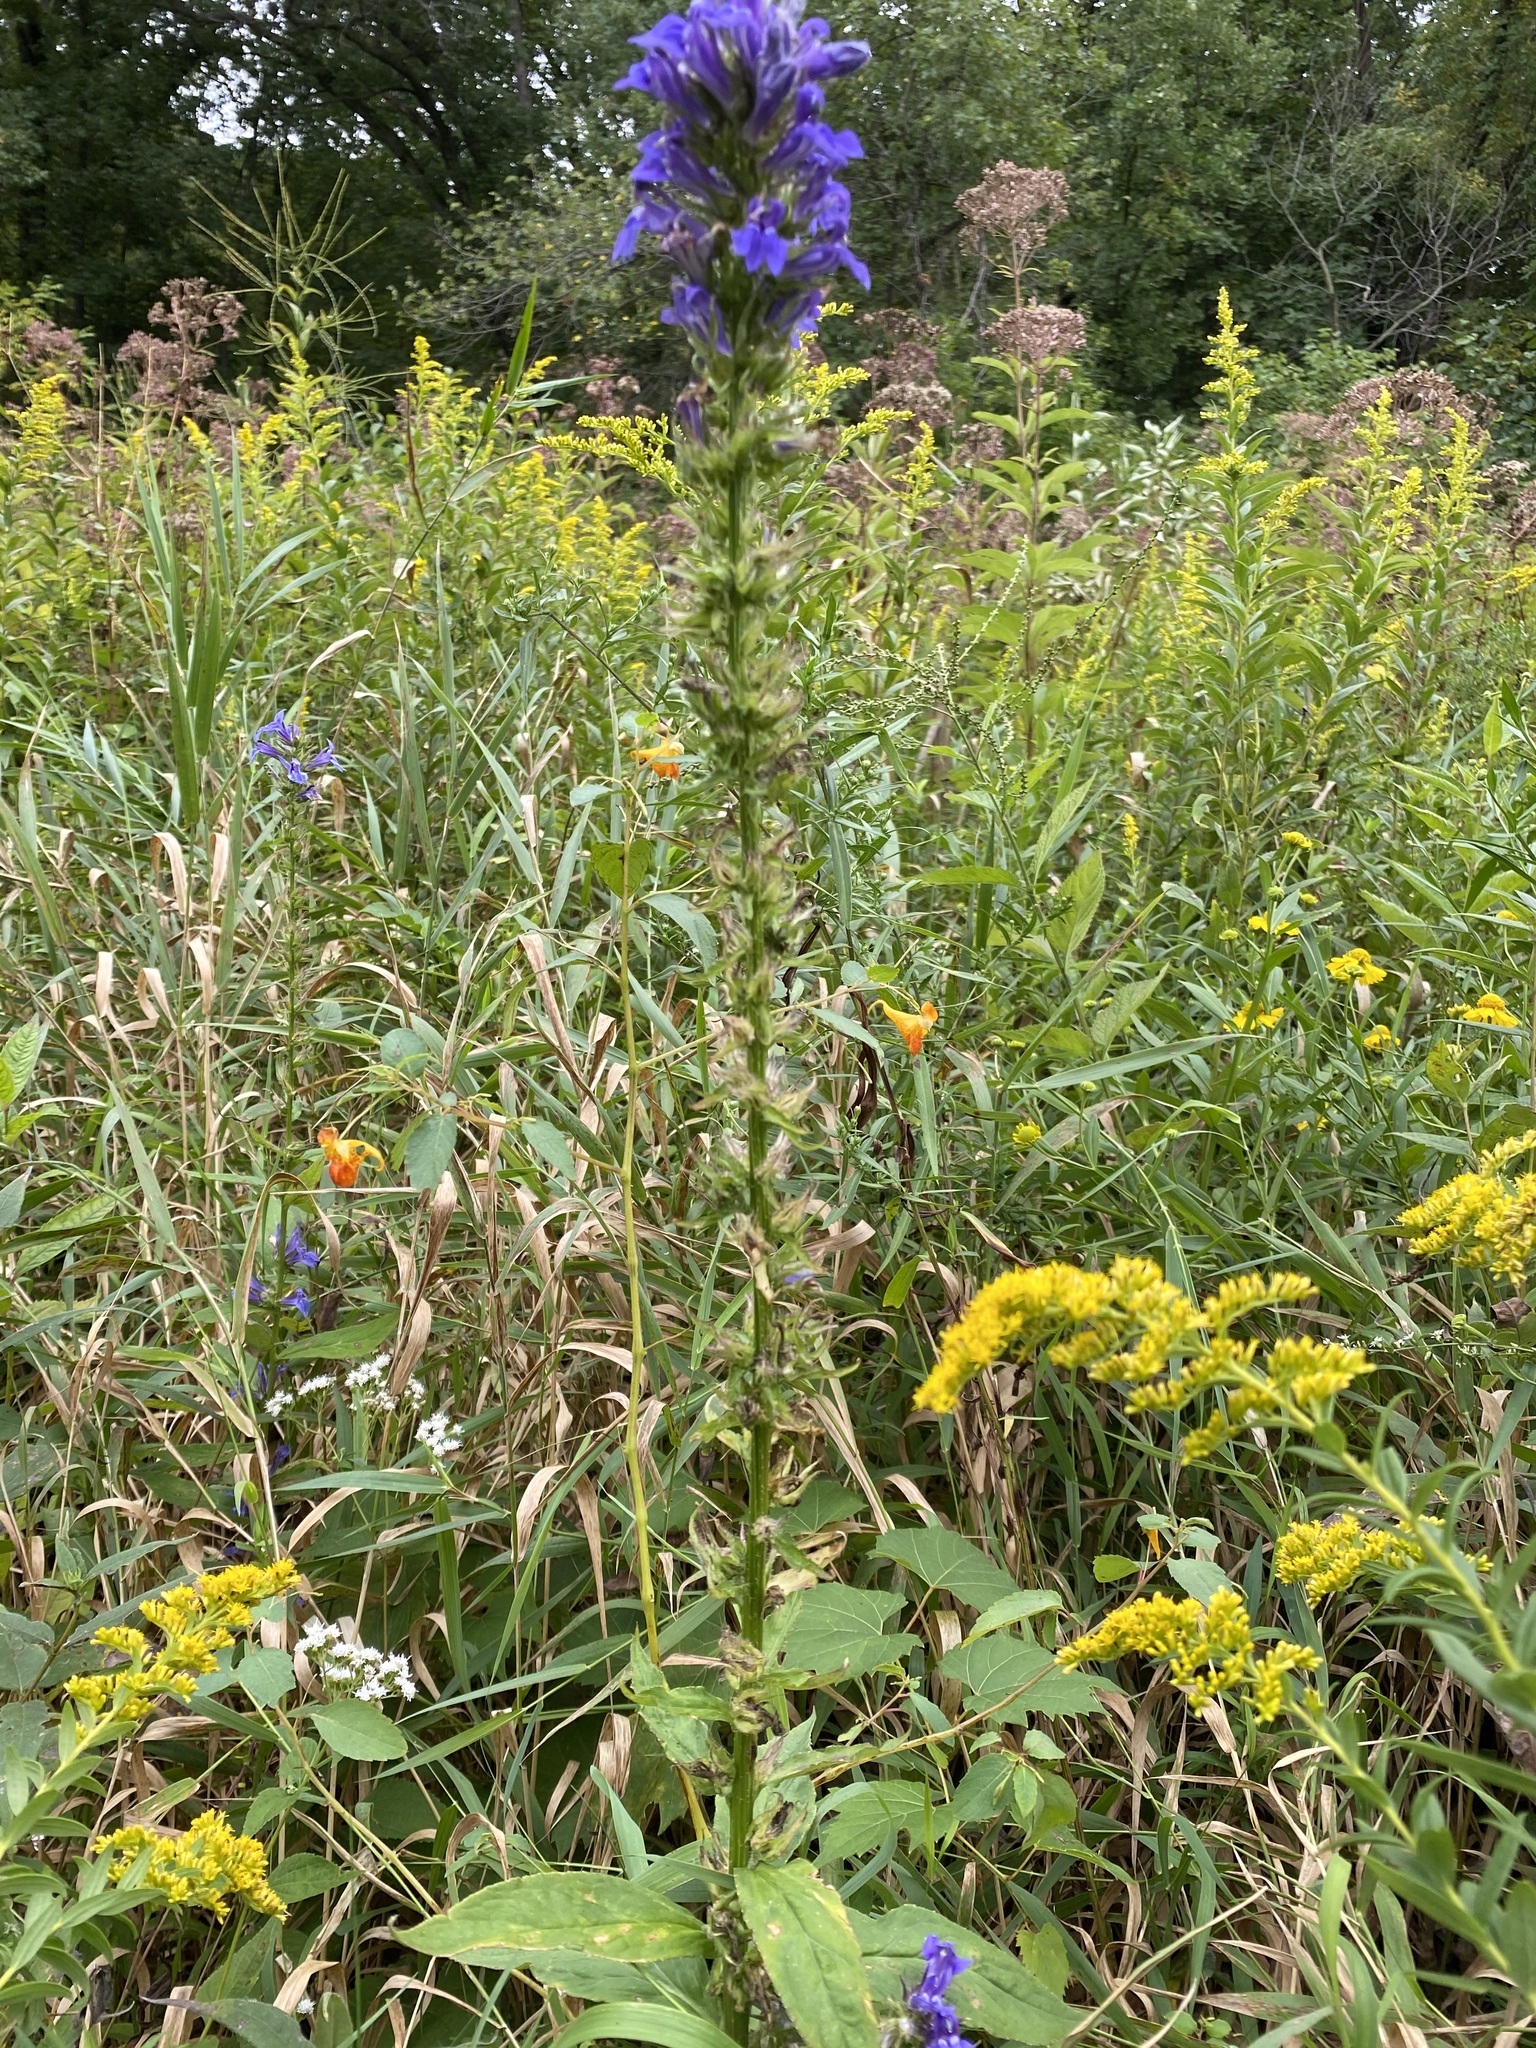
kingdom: Plantae
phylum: Tracheophyta
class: Magnoliopsida
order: Asterales
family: Campanulaceae
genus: Lobelia
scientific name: Lobelia siphilitica
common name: Great lobelia
